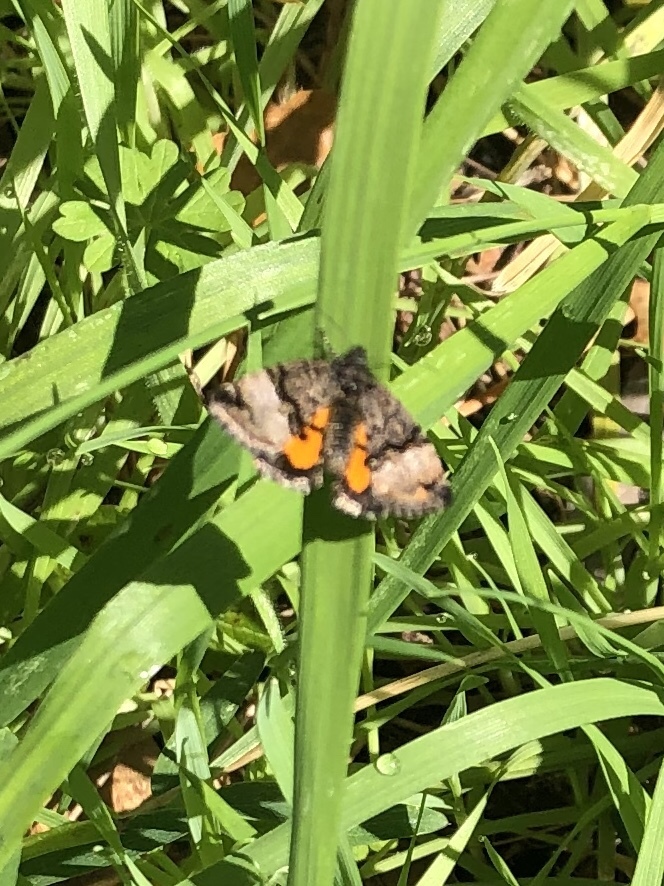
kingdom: Animalia
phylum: Arthropoda
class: Insecta
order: Lepidoptera
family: Noctuidae
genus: Annaphila
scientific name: Annaphila decia
